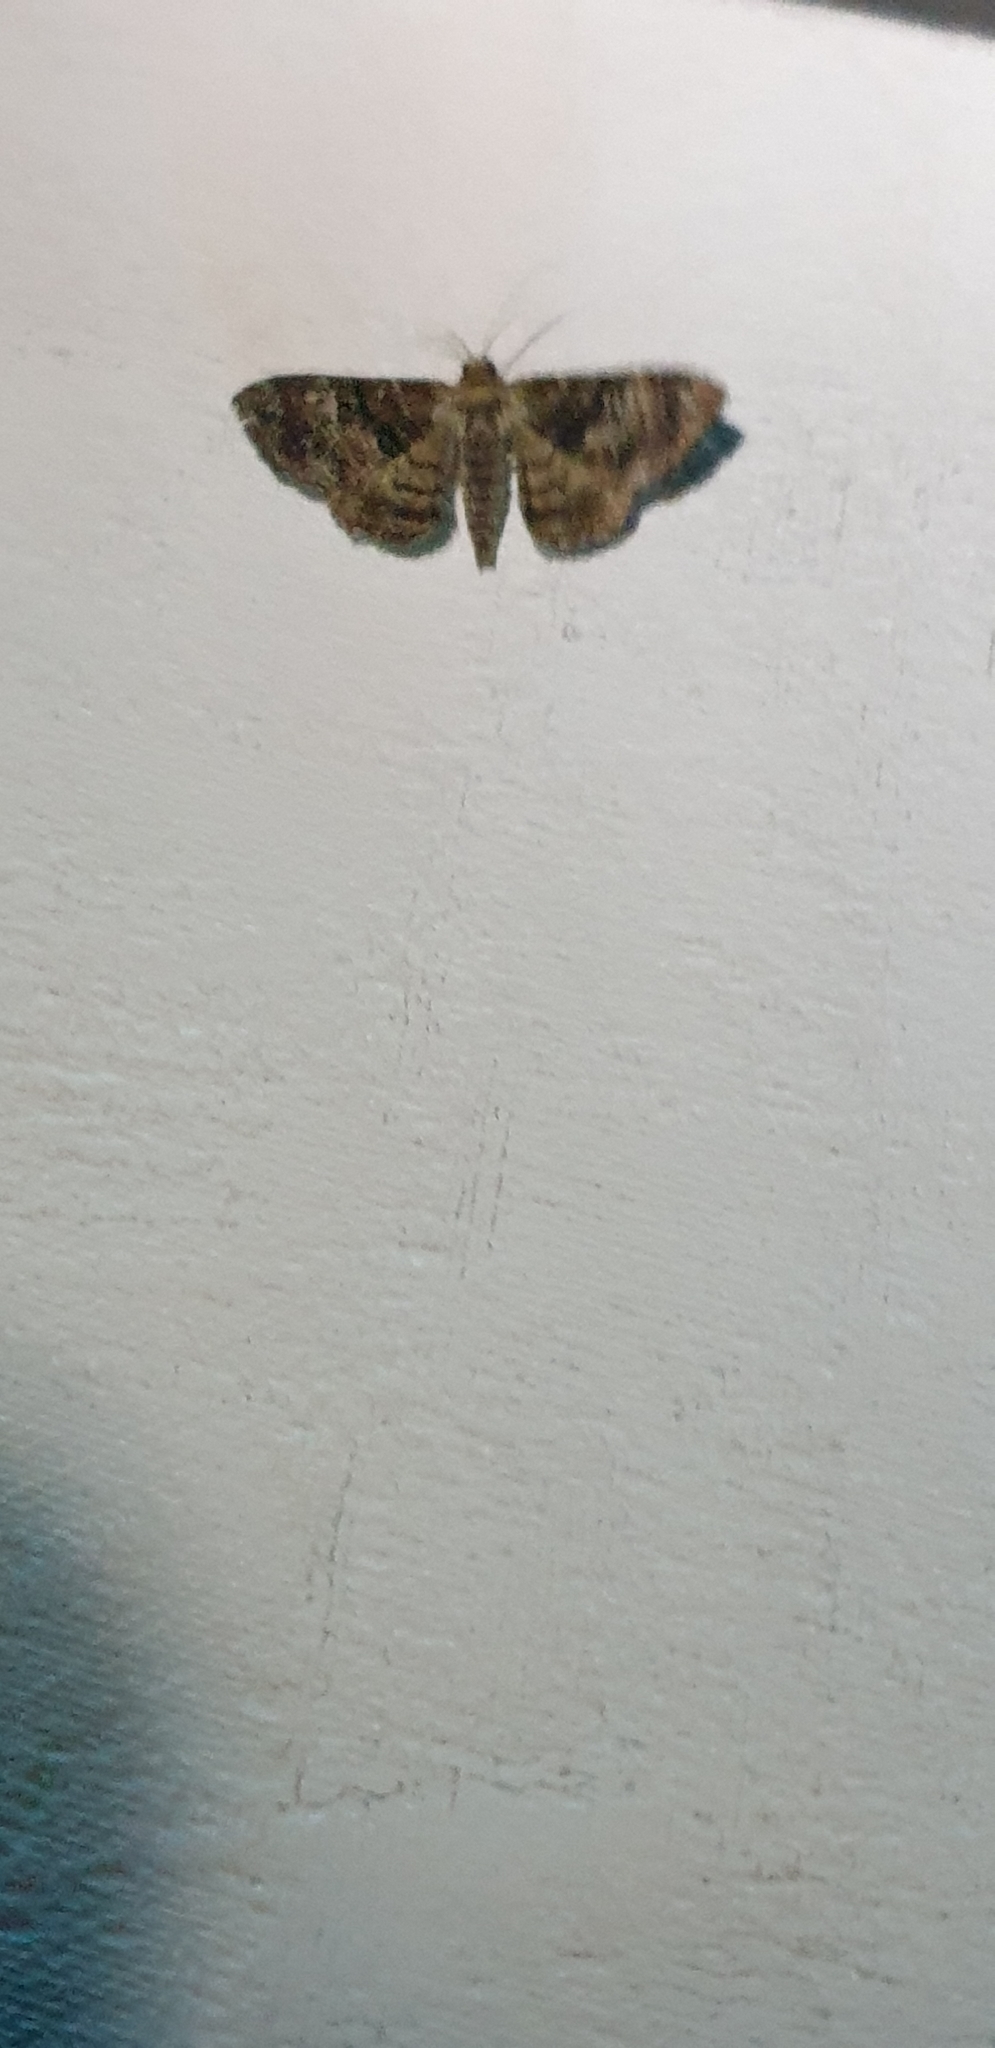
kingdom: Animalia
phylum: Arthropoda
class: Insecta
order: Lepidoptera
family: Geometridae
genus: Aporoctena
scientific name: Aporoctena scierodes
